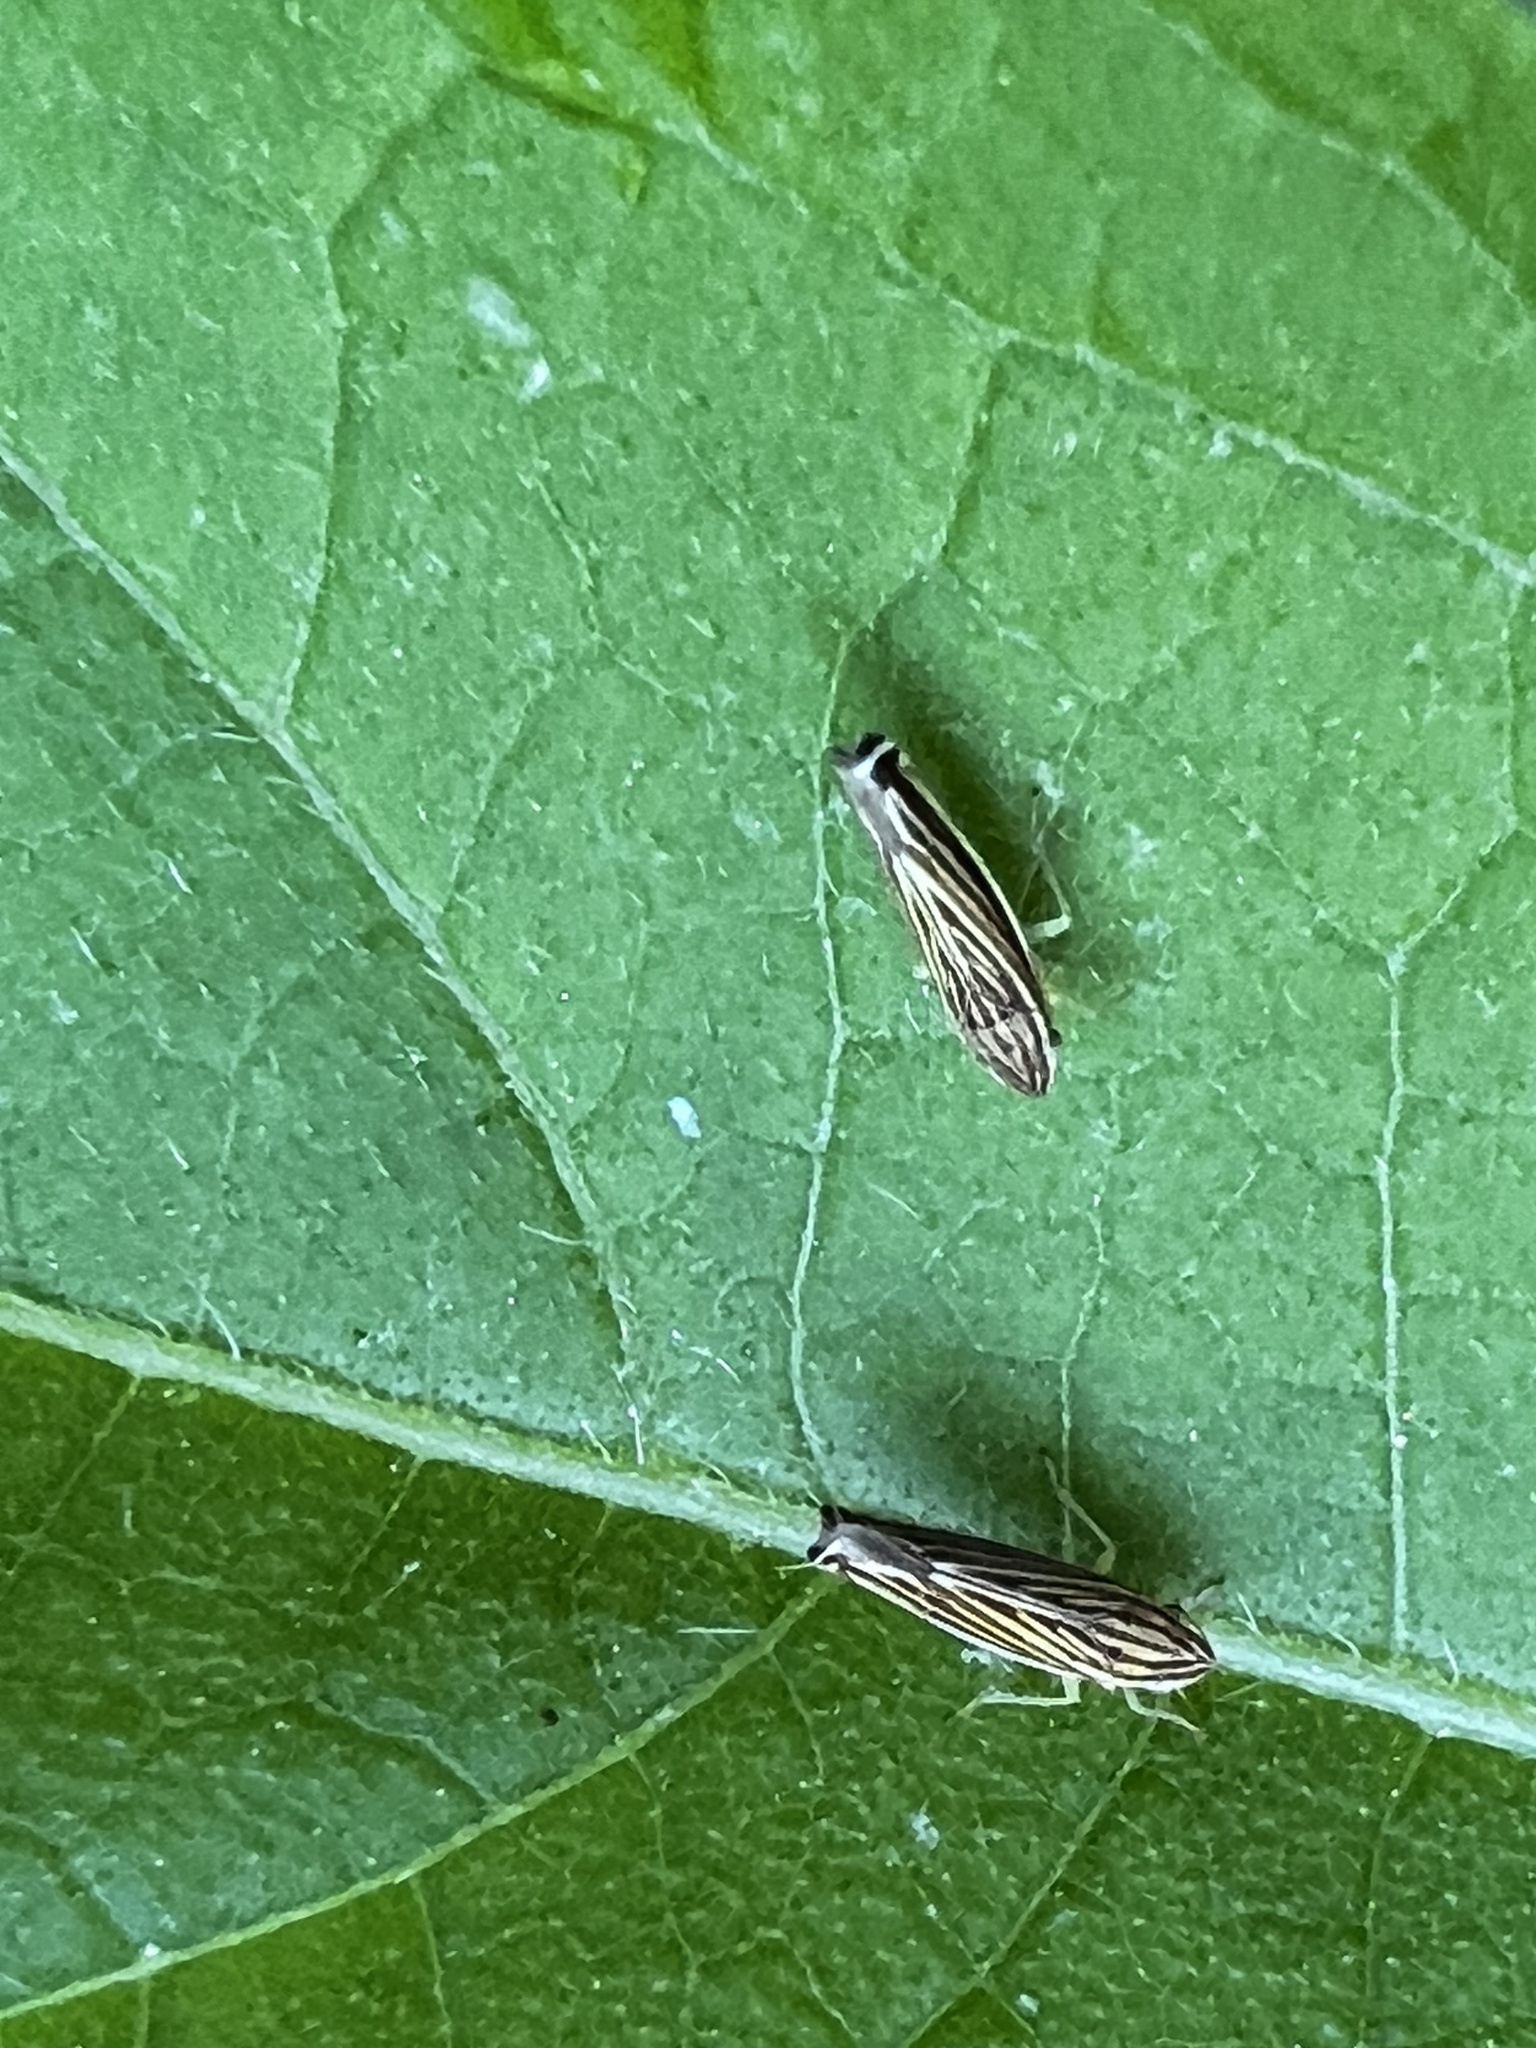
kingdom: Animalia
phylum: Arthropoda
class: Insecta
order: Hemiptera
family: Cicadellidae
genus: Sibovia
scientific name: Sibovia occatoria
